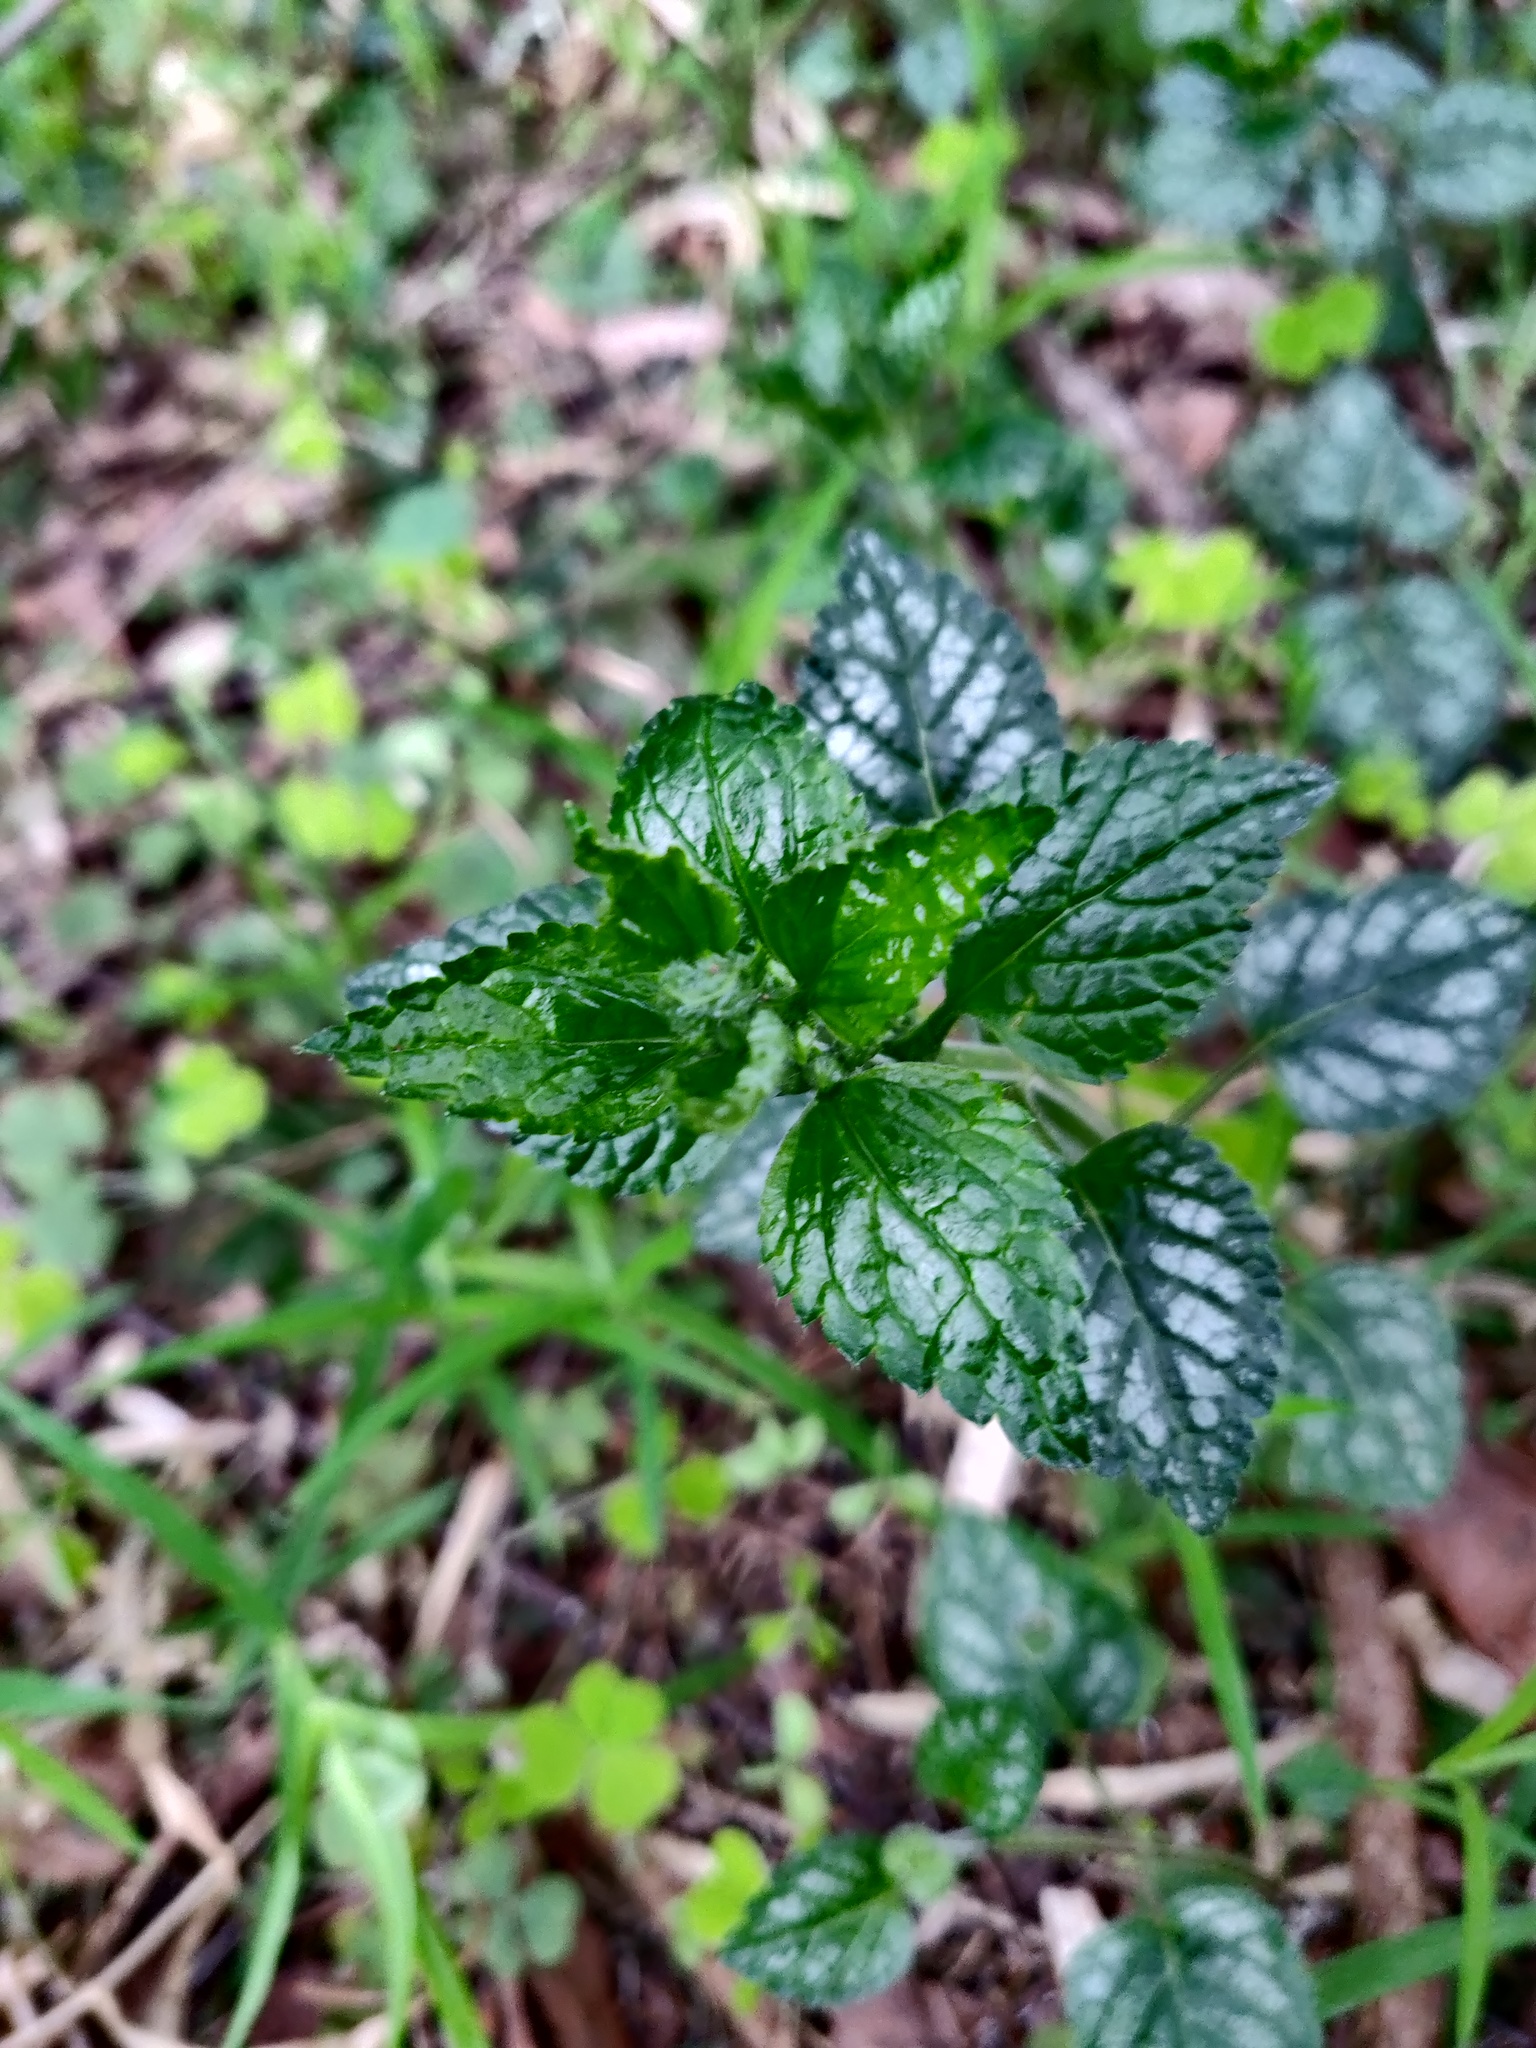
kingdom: Plantae
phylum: Tracheophyta
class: Magnoliopsida
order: Lamiales
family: Lamiaceae
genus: Lamium
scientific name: Lamium galeobdolon
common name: Yellow archangel
